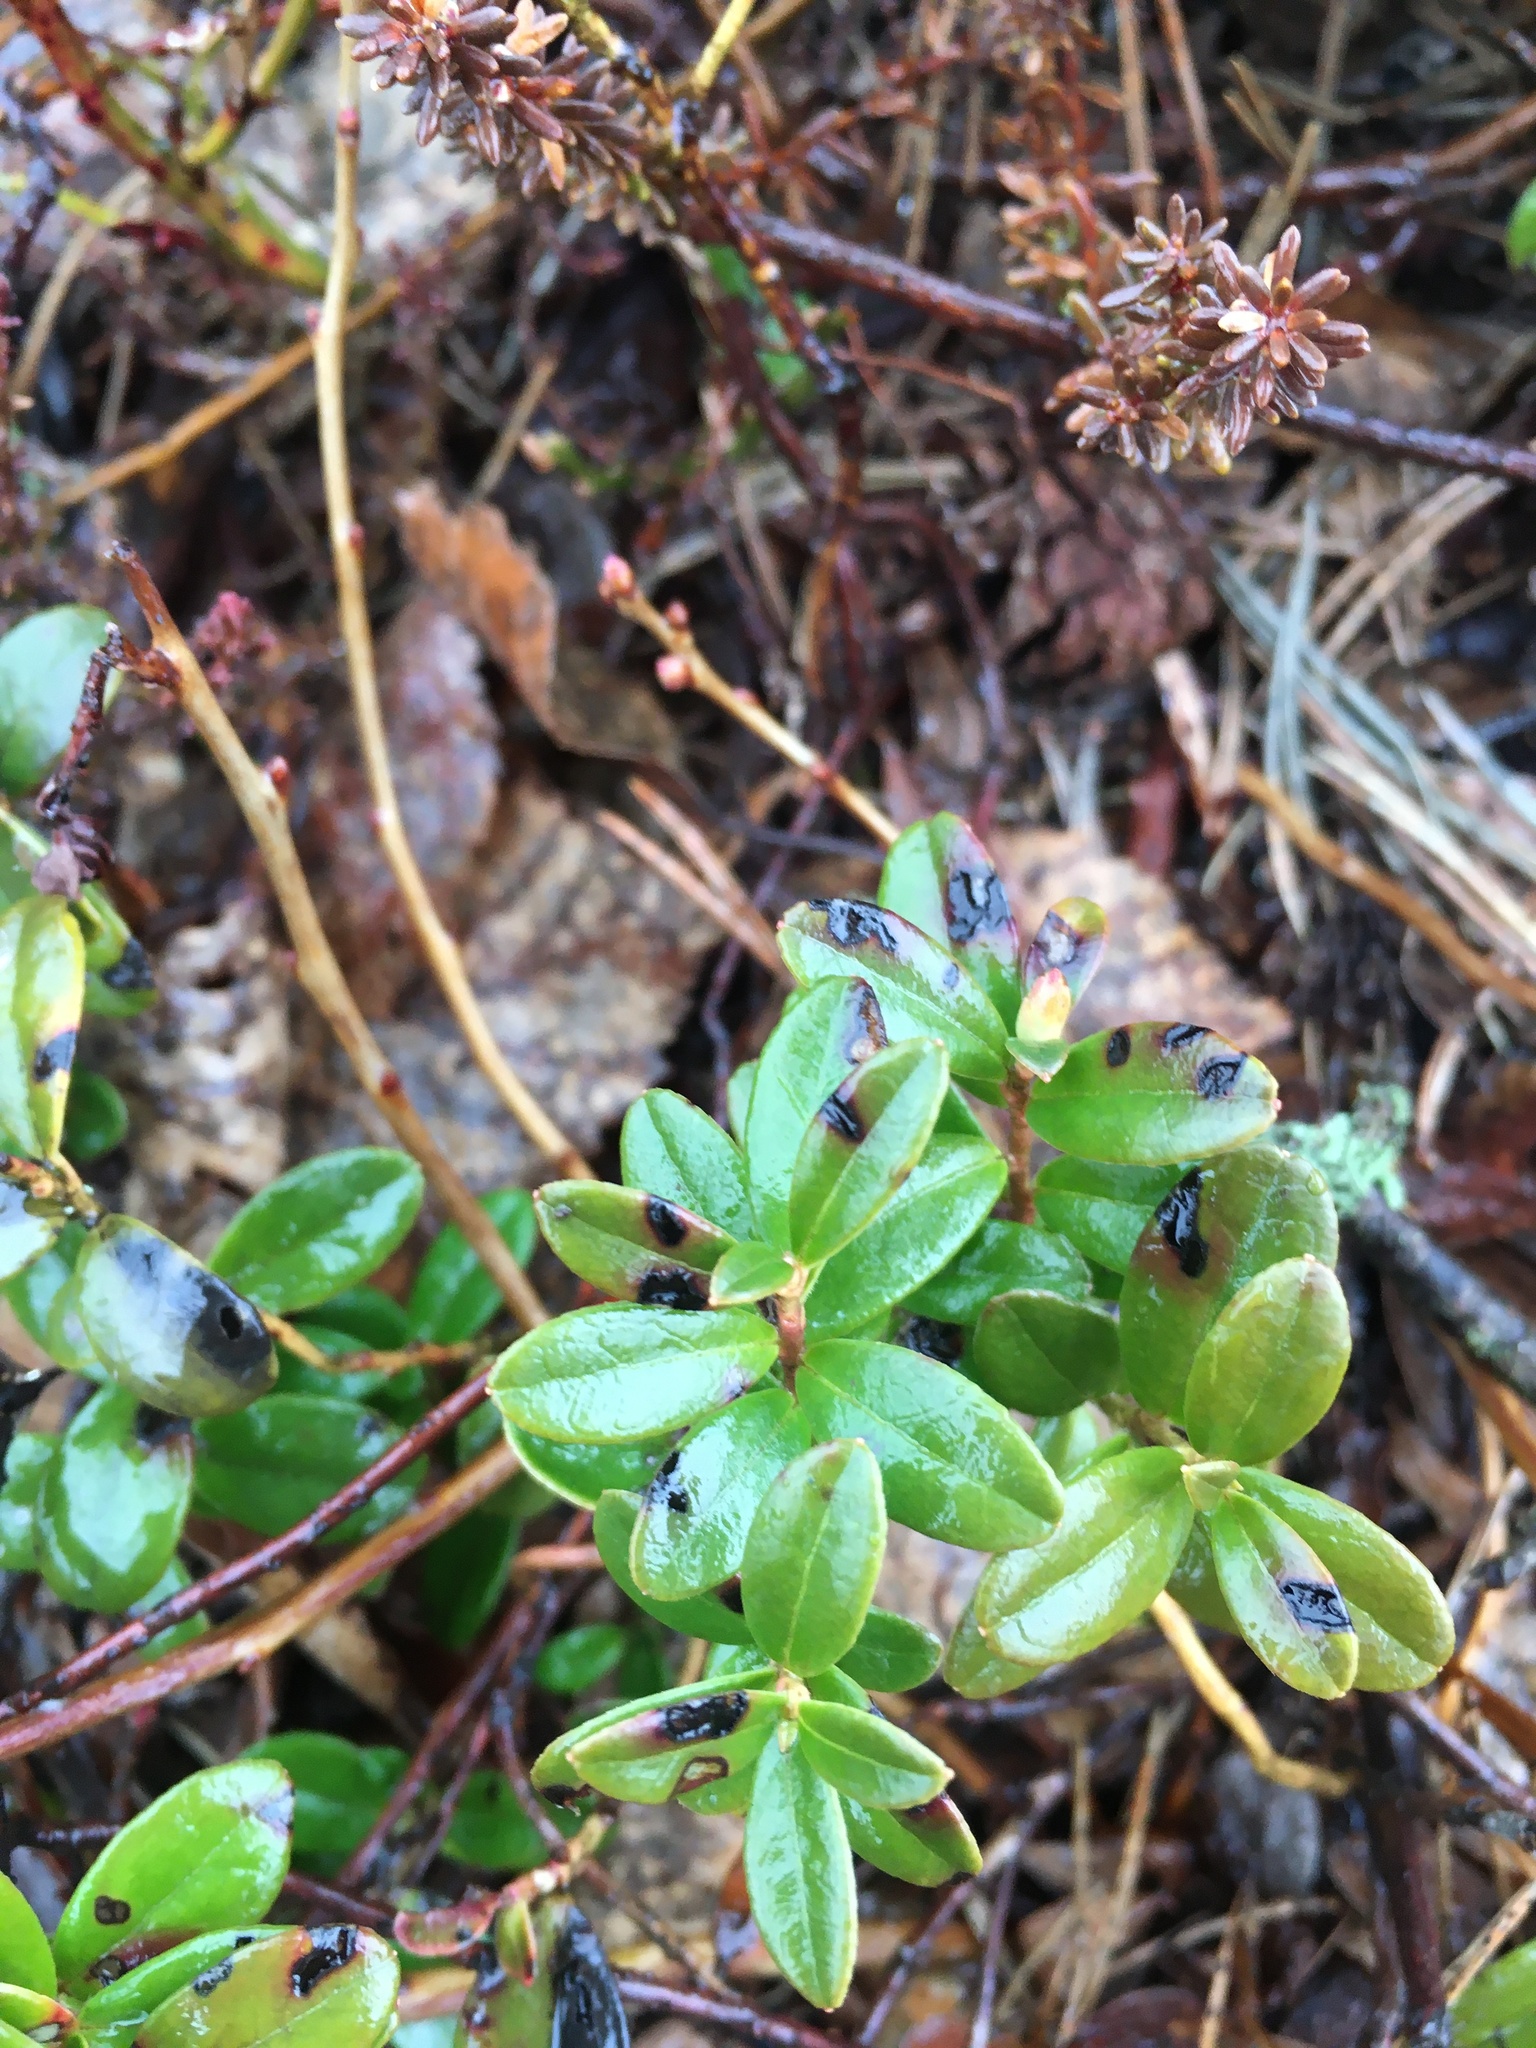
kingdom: Plantae
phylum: Tracheophyta
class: Magnoliopsida
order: Ericales
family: Ericaceae
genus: Vaccinium
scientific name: Vaccinium vitis-idaea
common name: Cowberry
